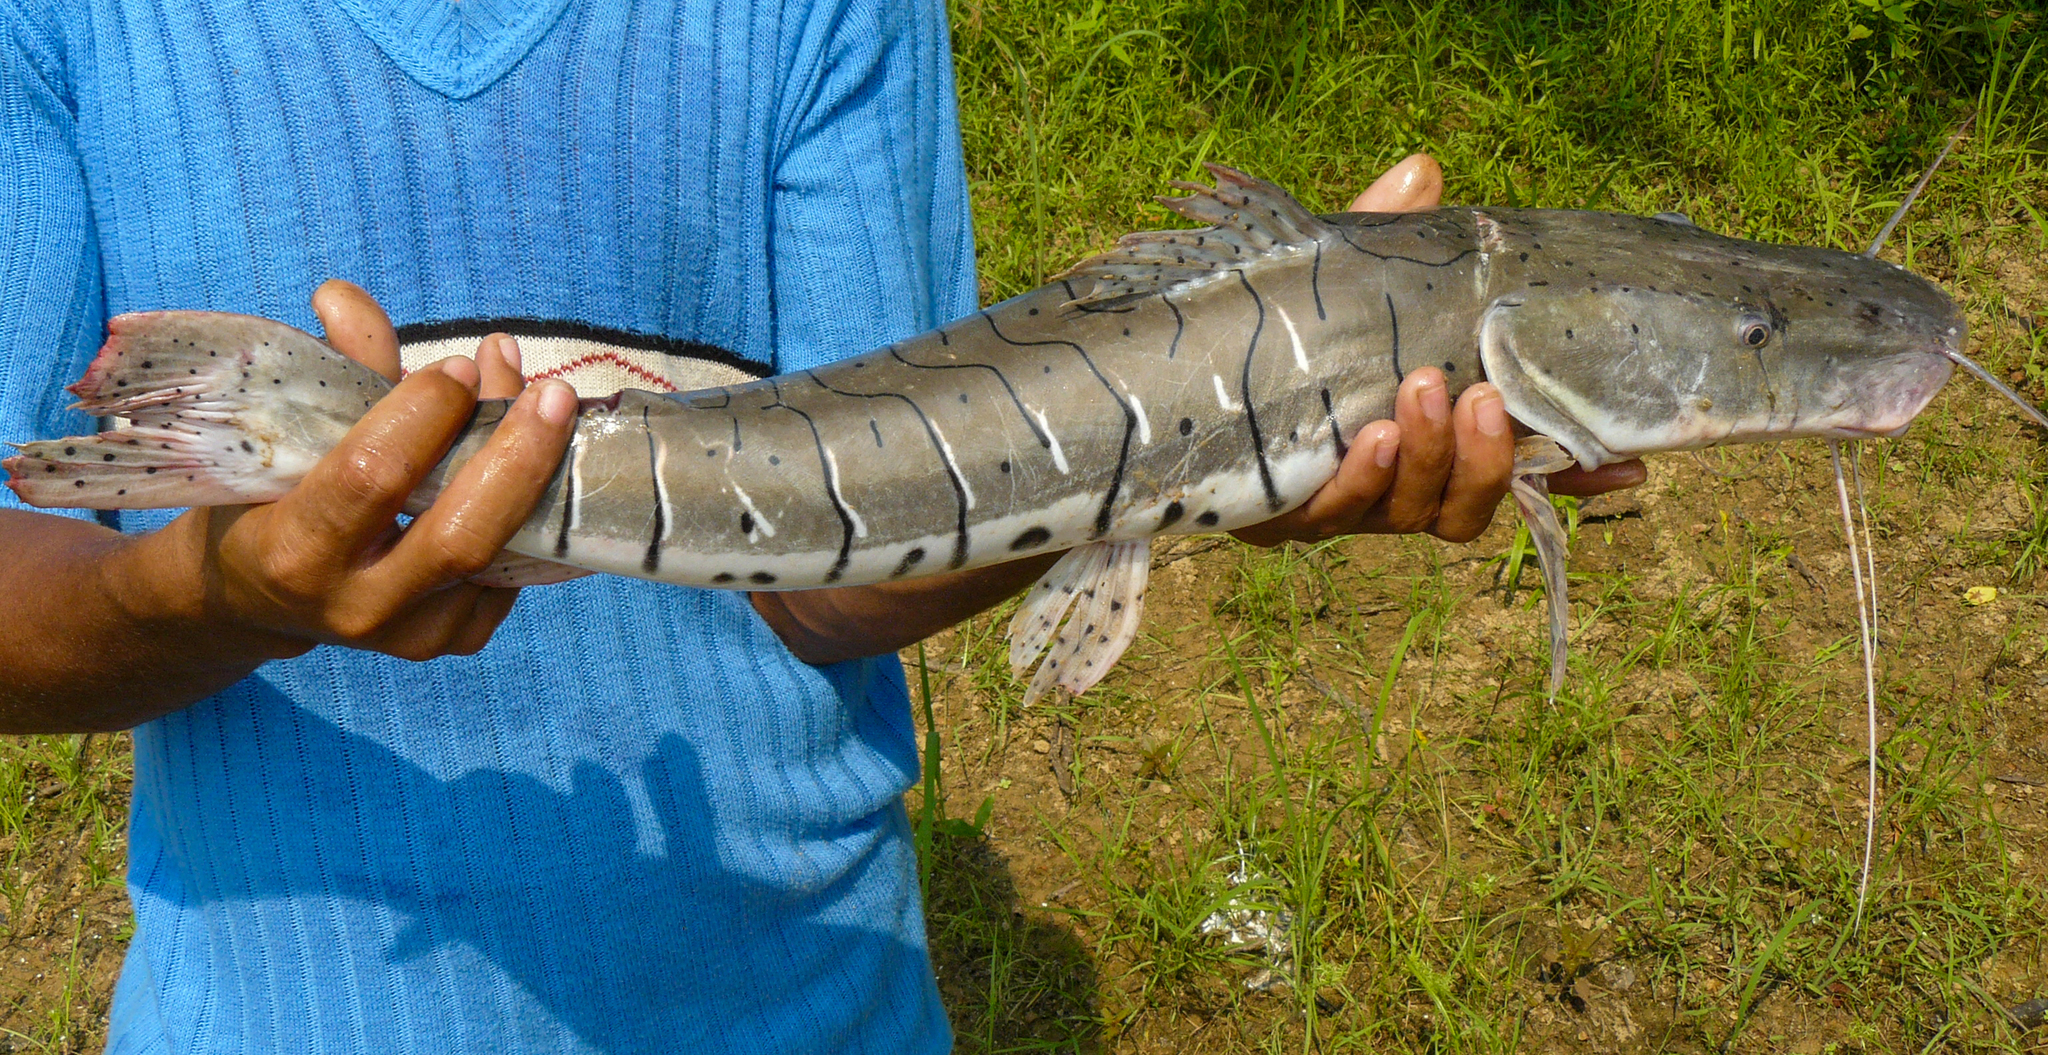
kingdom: Animalia
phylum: Chordata
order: Siluriformes
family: Pimelodidae
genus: Pseudoplatystoma
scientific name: Pseudoplatystoma punctifer
